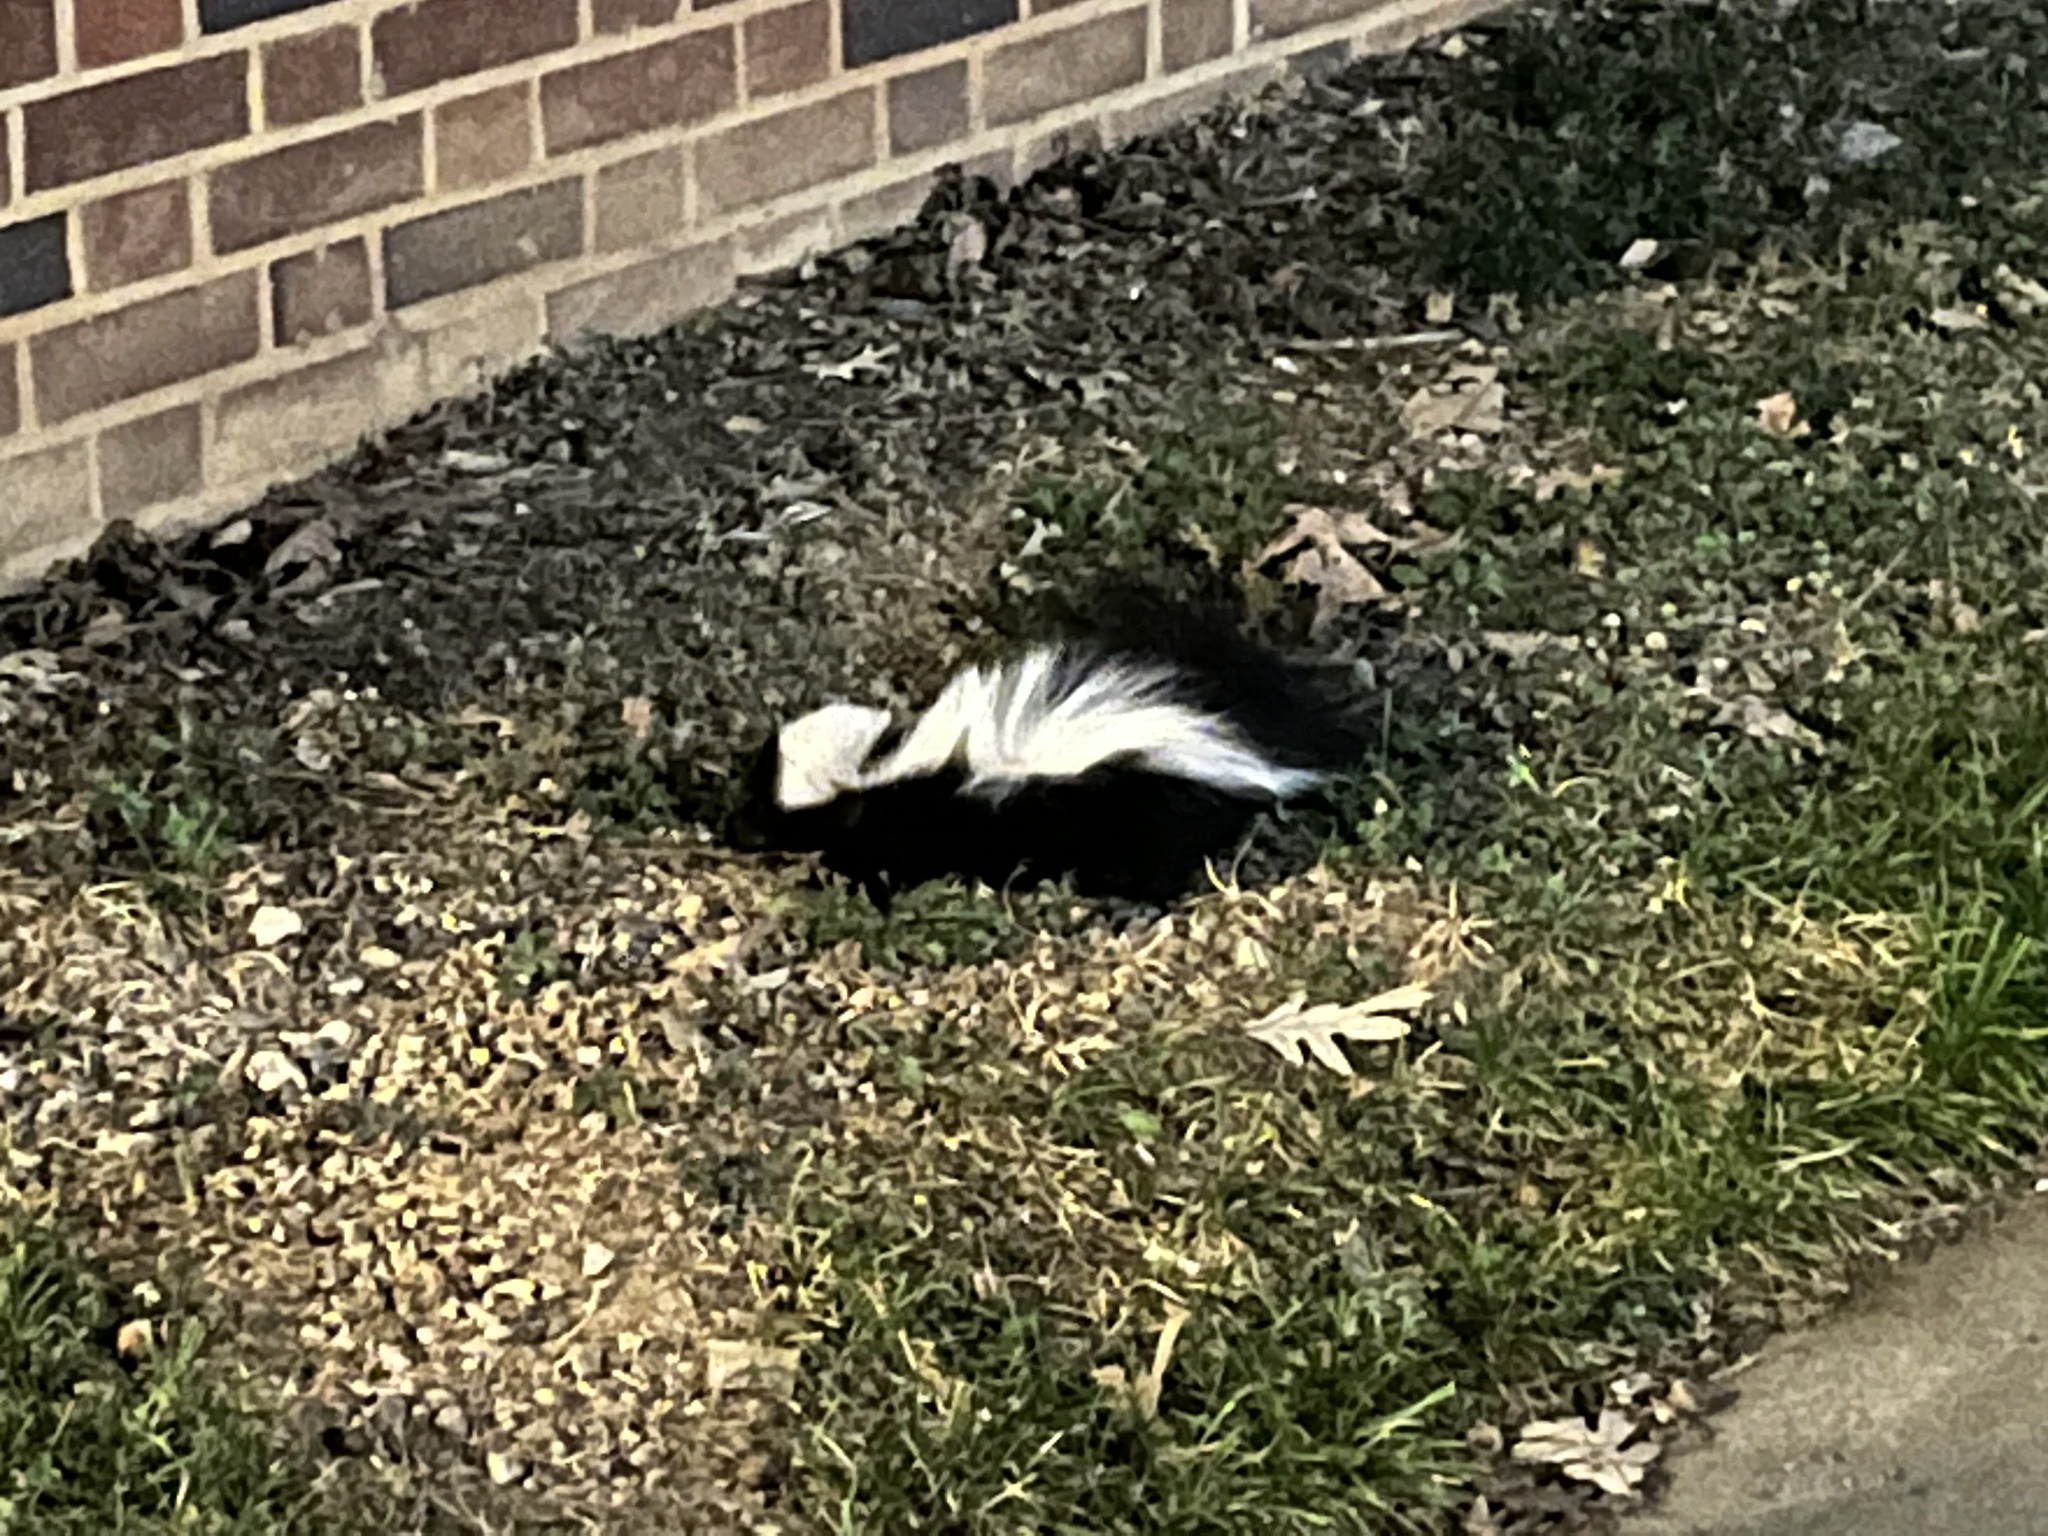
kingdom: Animalia
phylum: Chordata
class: Mammalia
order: Carnivora
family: Mephitidae
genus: Mephitis
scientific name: Mephitis mephitis
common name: Striped skunk
